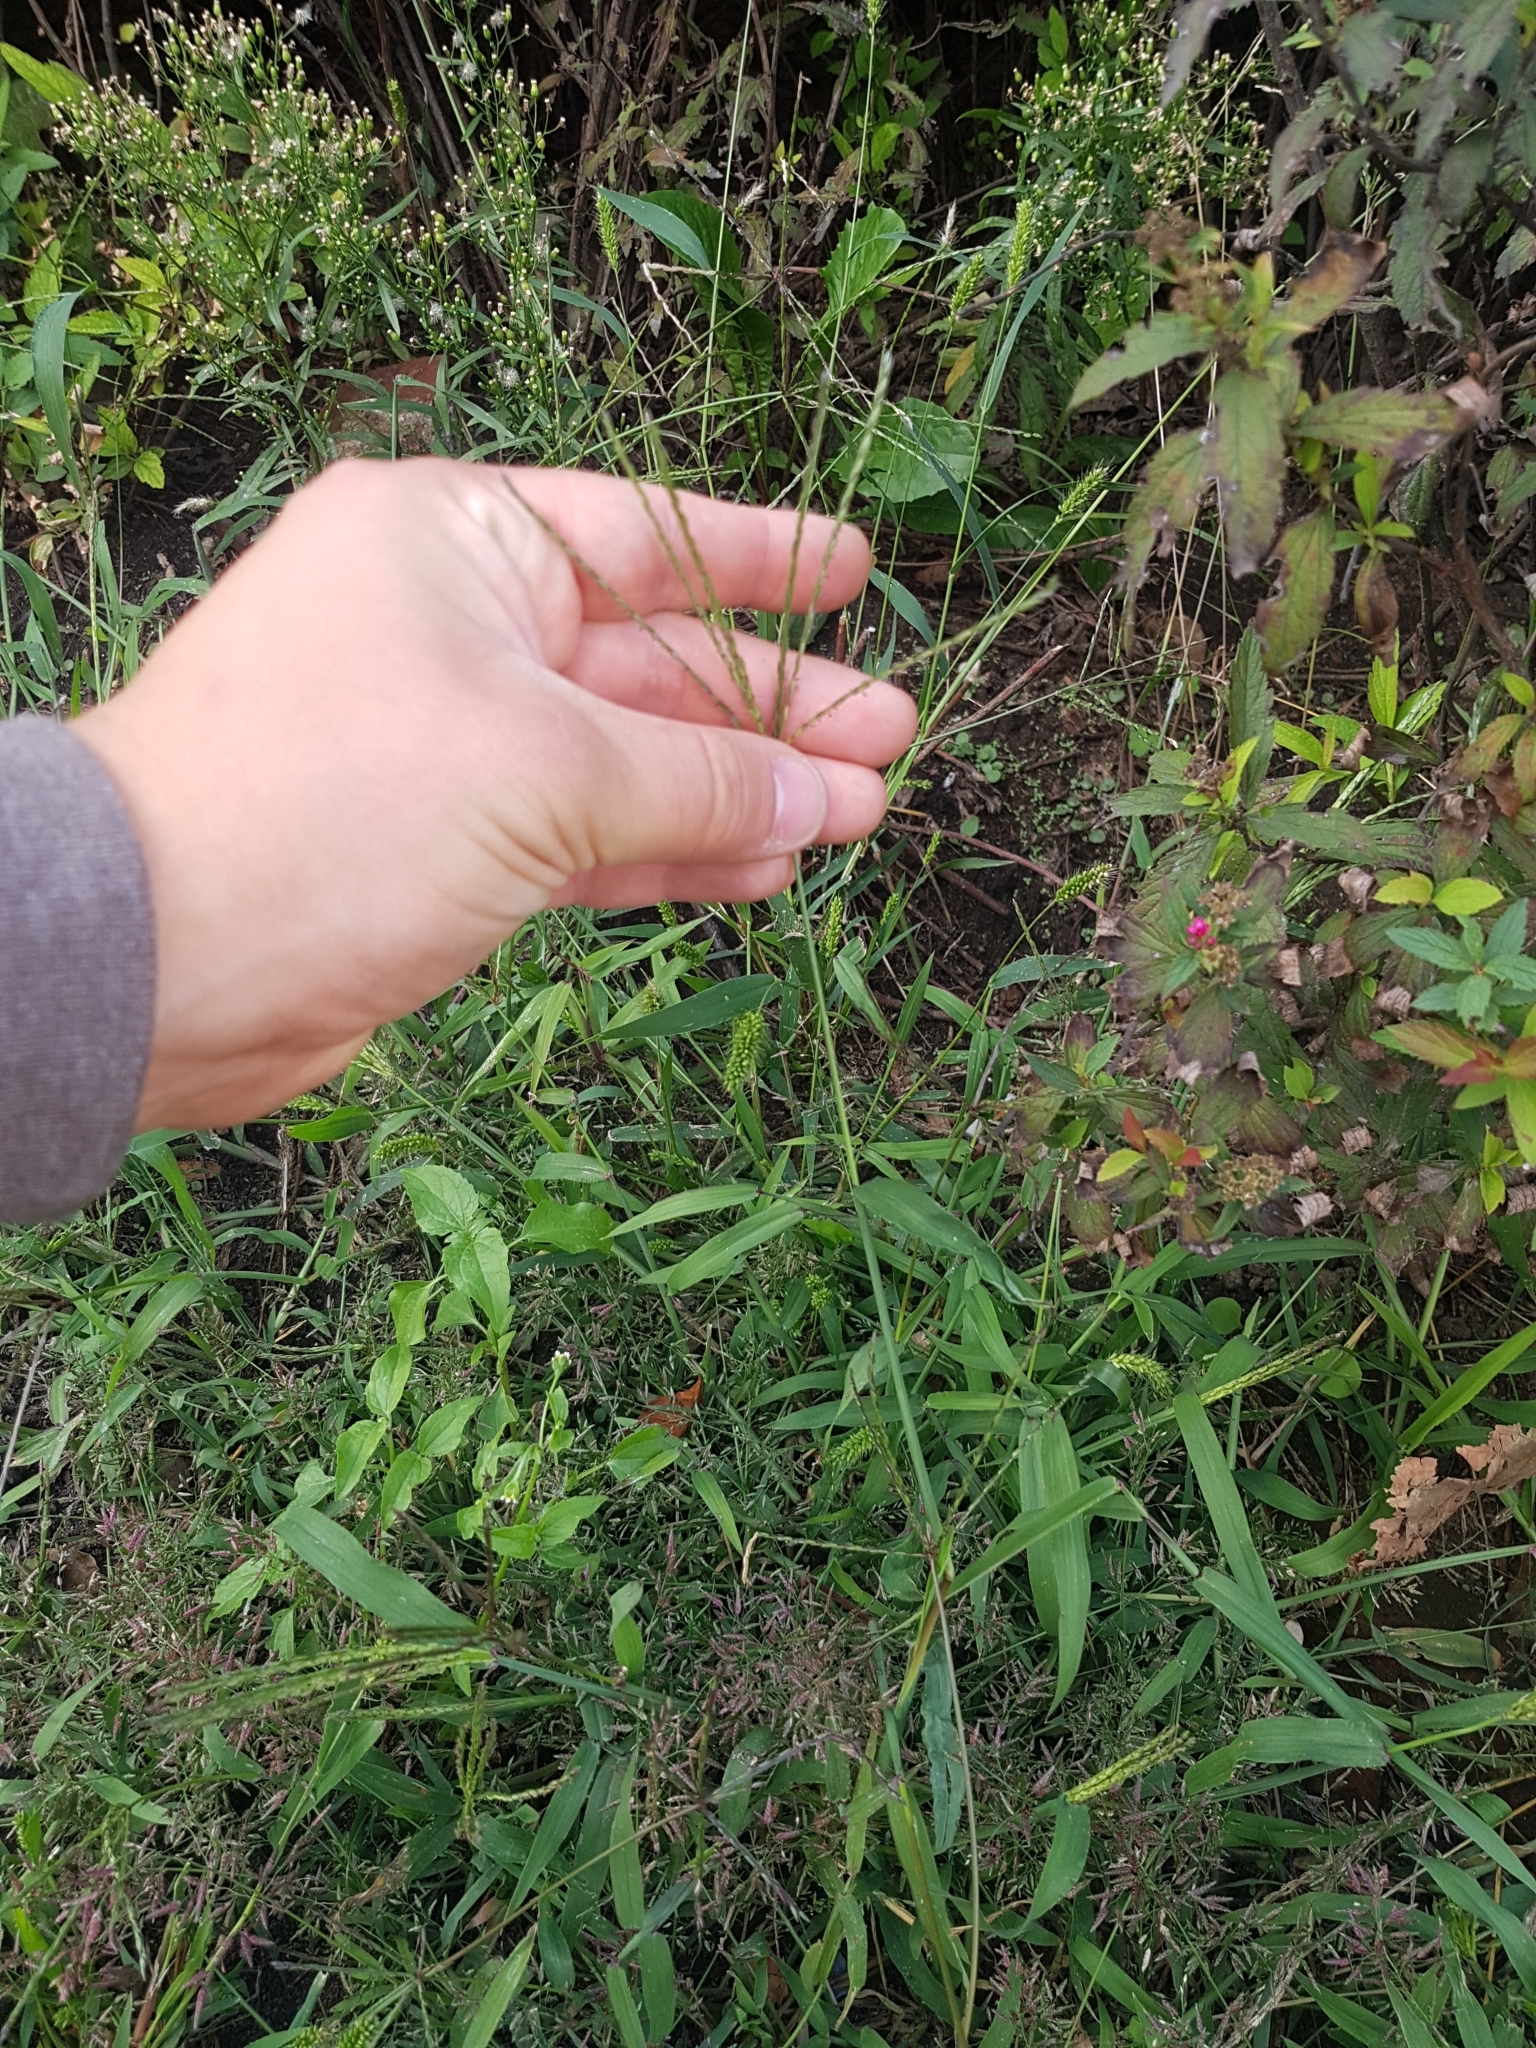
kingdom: Plantae
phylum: Tracheophyta
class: Liliopsida
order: Poales
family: Poaceae
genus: Digitaria
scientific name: Digitaria sanguinalis
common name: Hairy crabgrass
